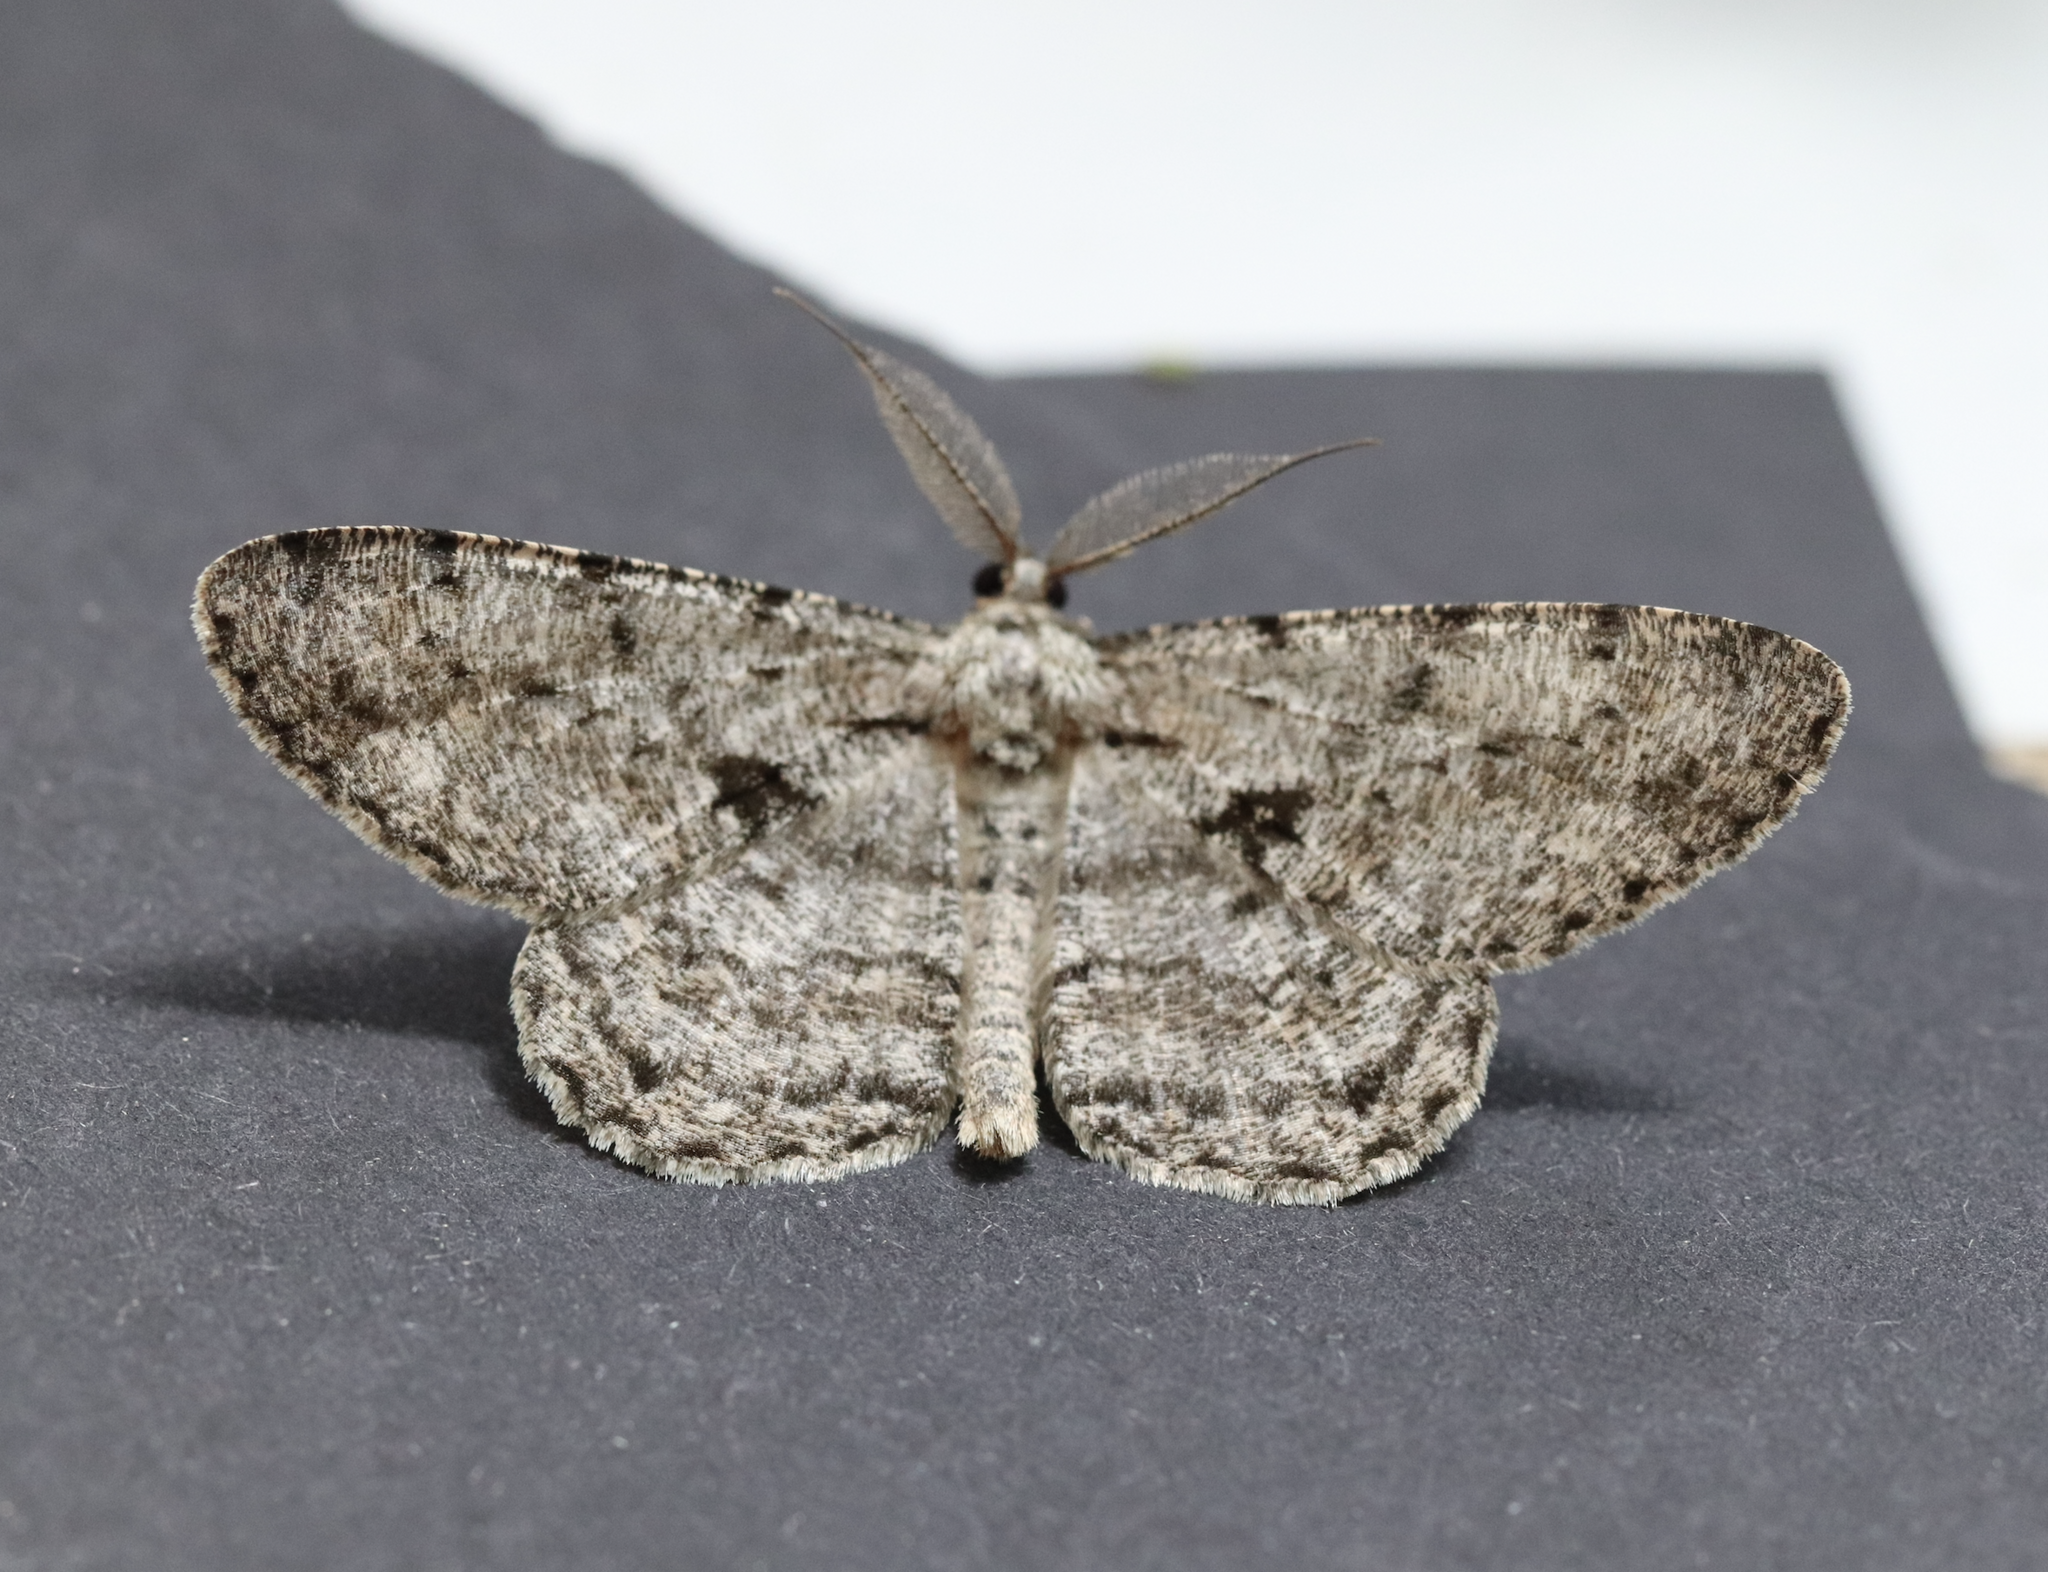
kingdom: Animalia
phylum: Arthropoda
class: Insecta
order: Lepidoptera
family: Geometridae
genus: Hypomecis
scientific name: Hypomecis roboraria
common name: Great oak beauty
